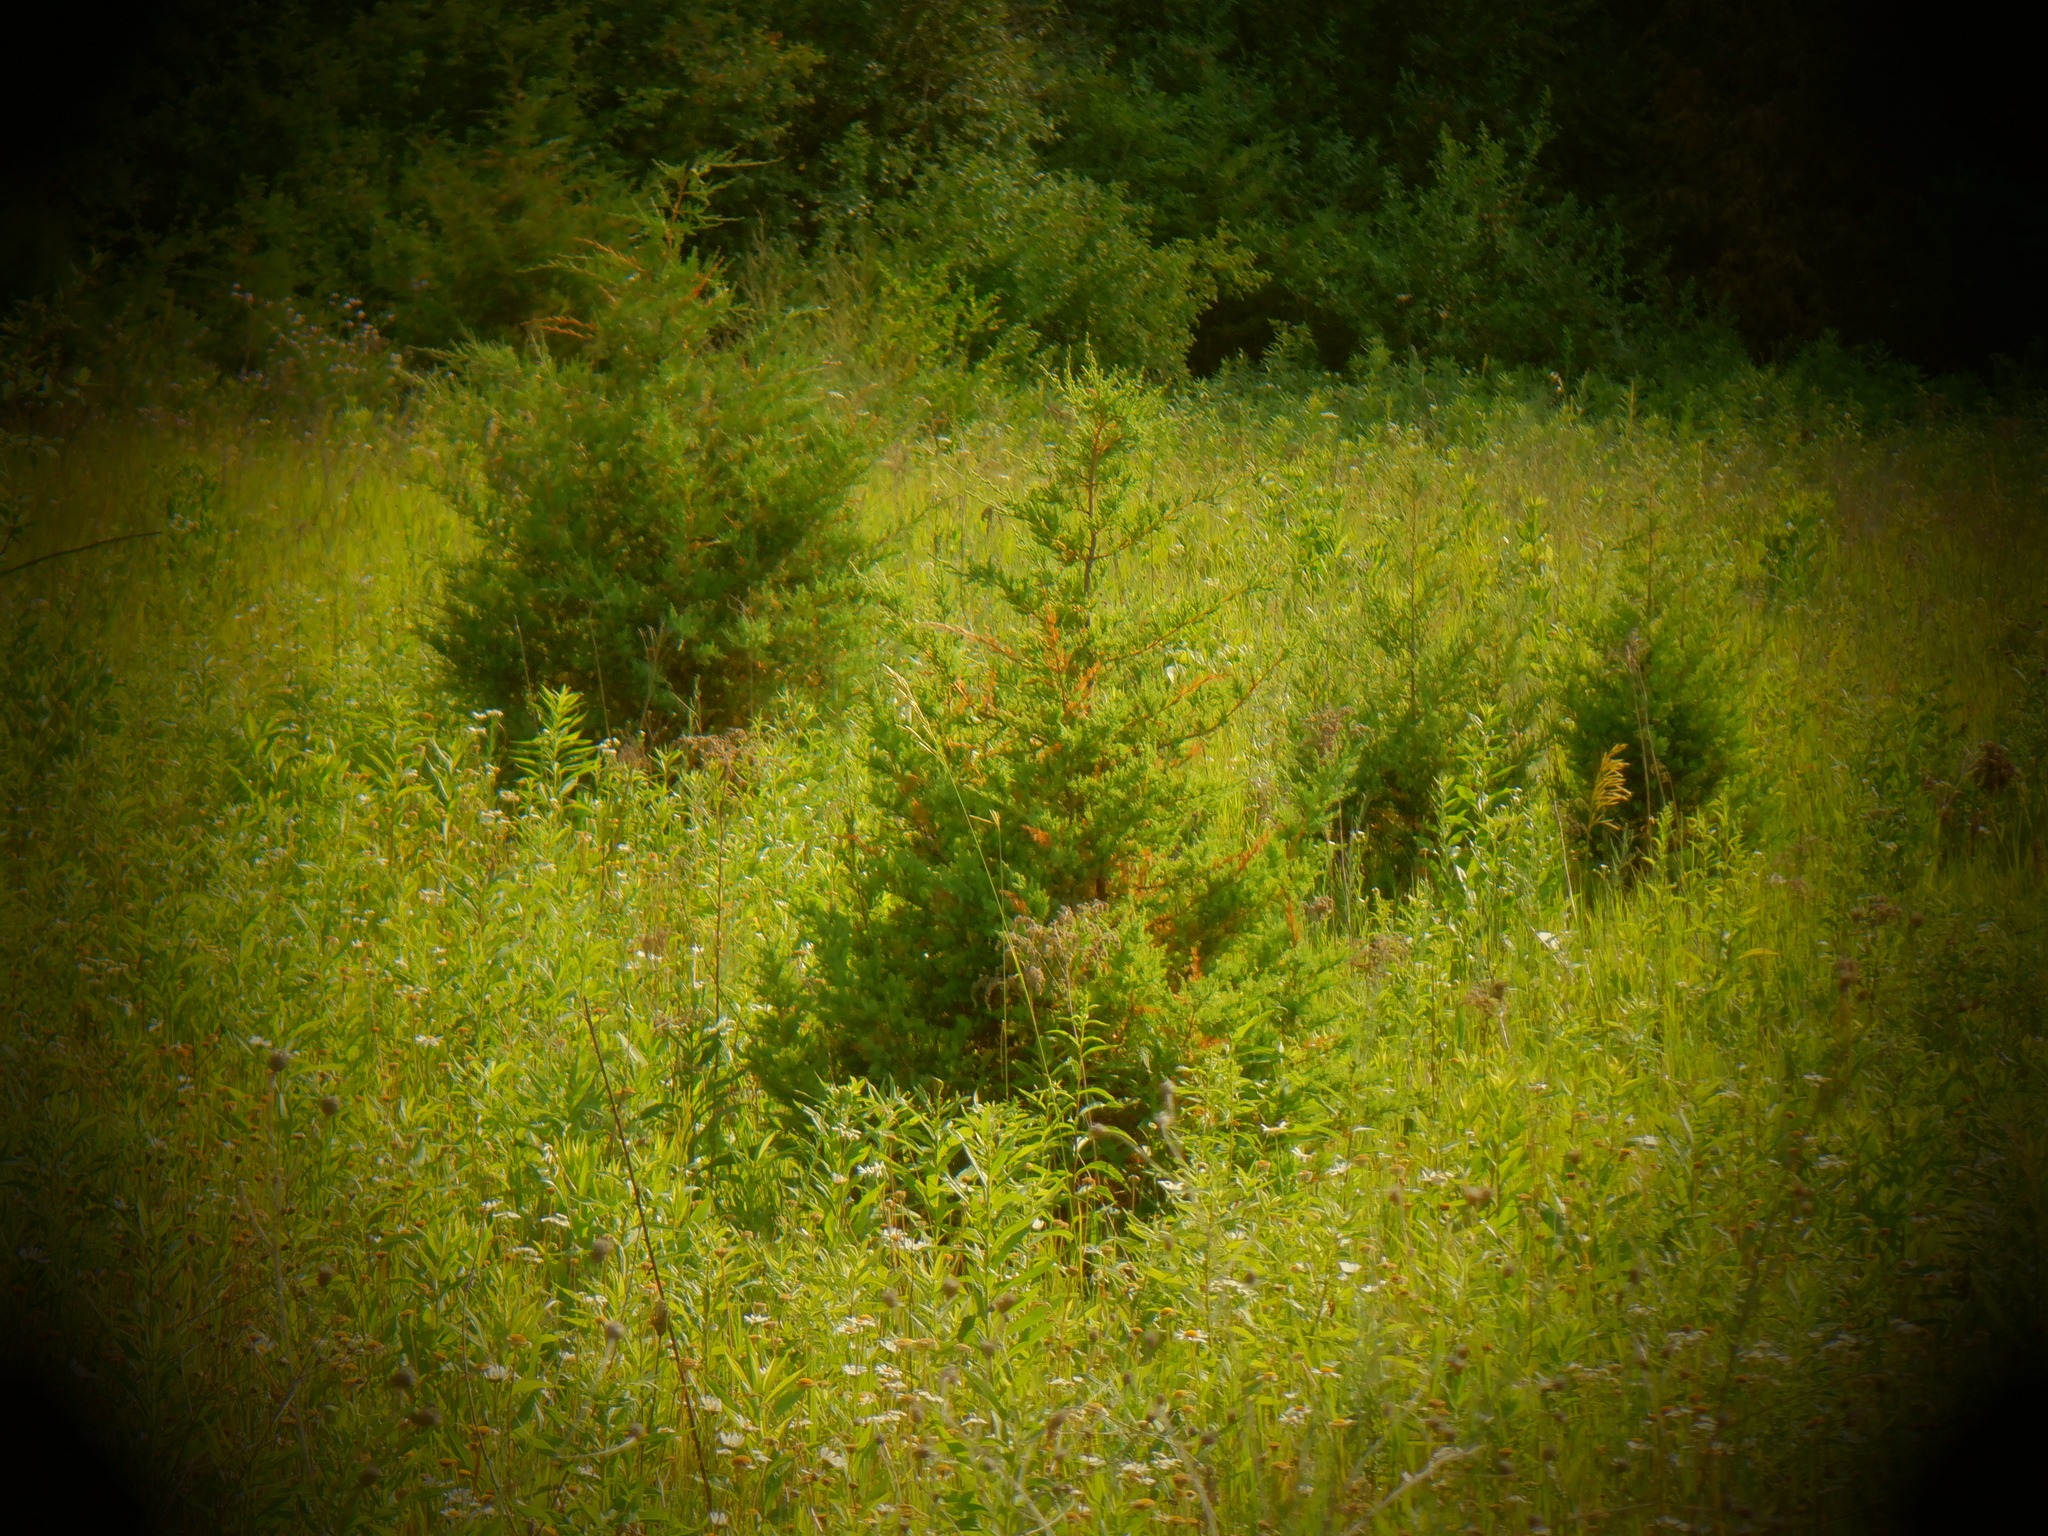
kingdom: Plantae
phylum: Tracheophyta
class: Pinopsida
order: Pinales
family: Cupressaceae
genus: Juniperus
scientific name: Juniperus virginiana
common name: Red juniper
